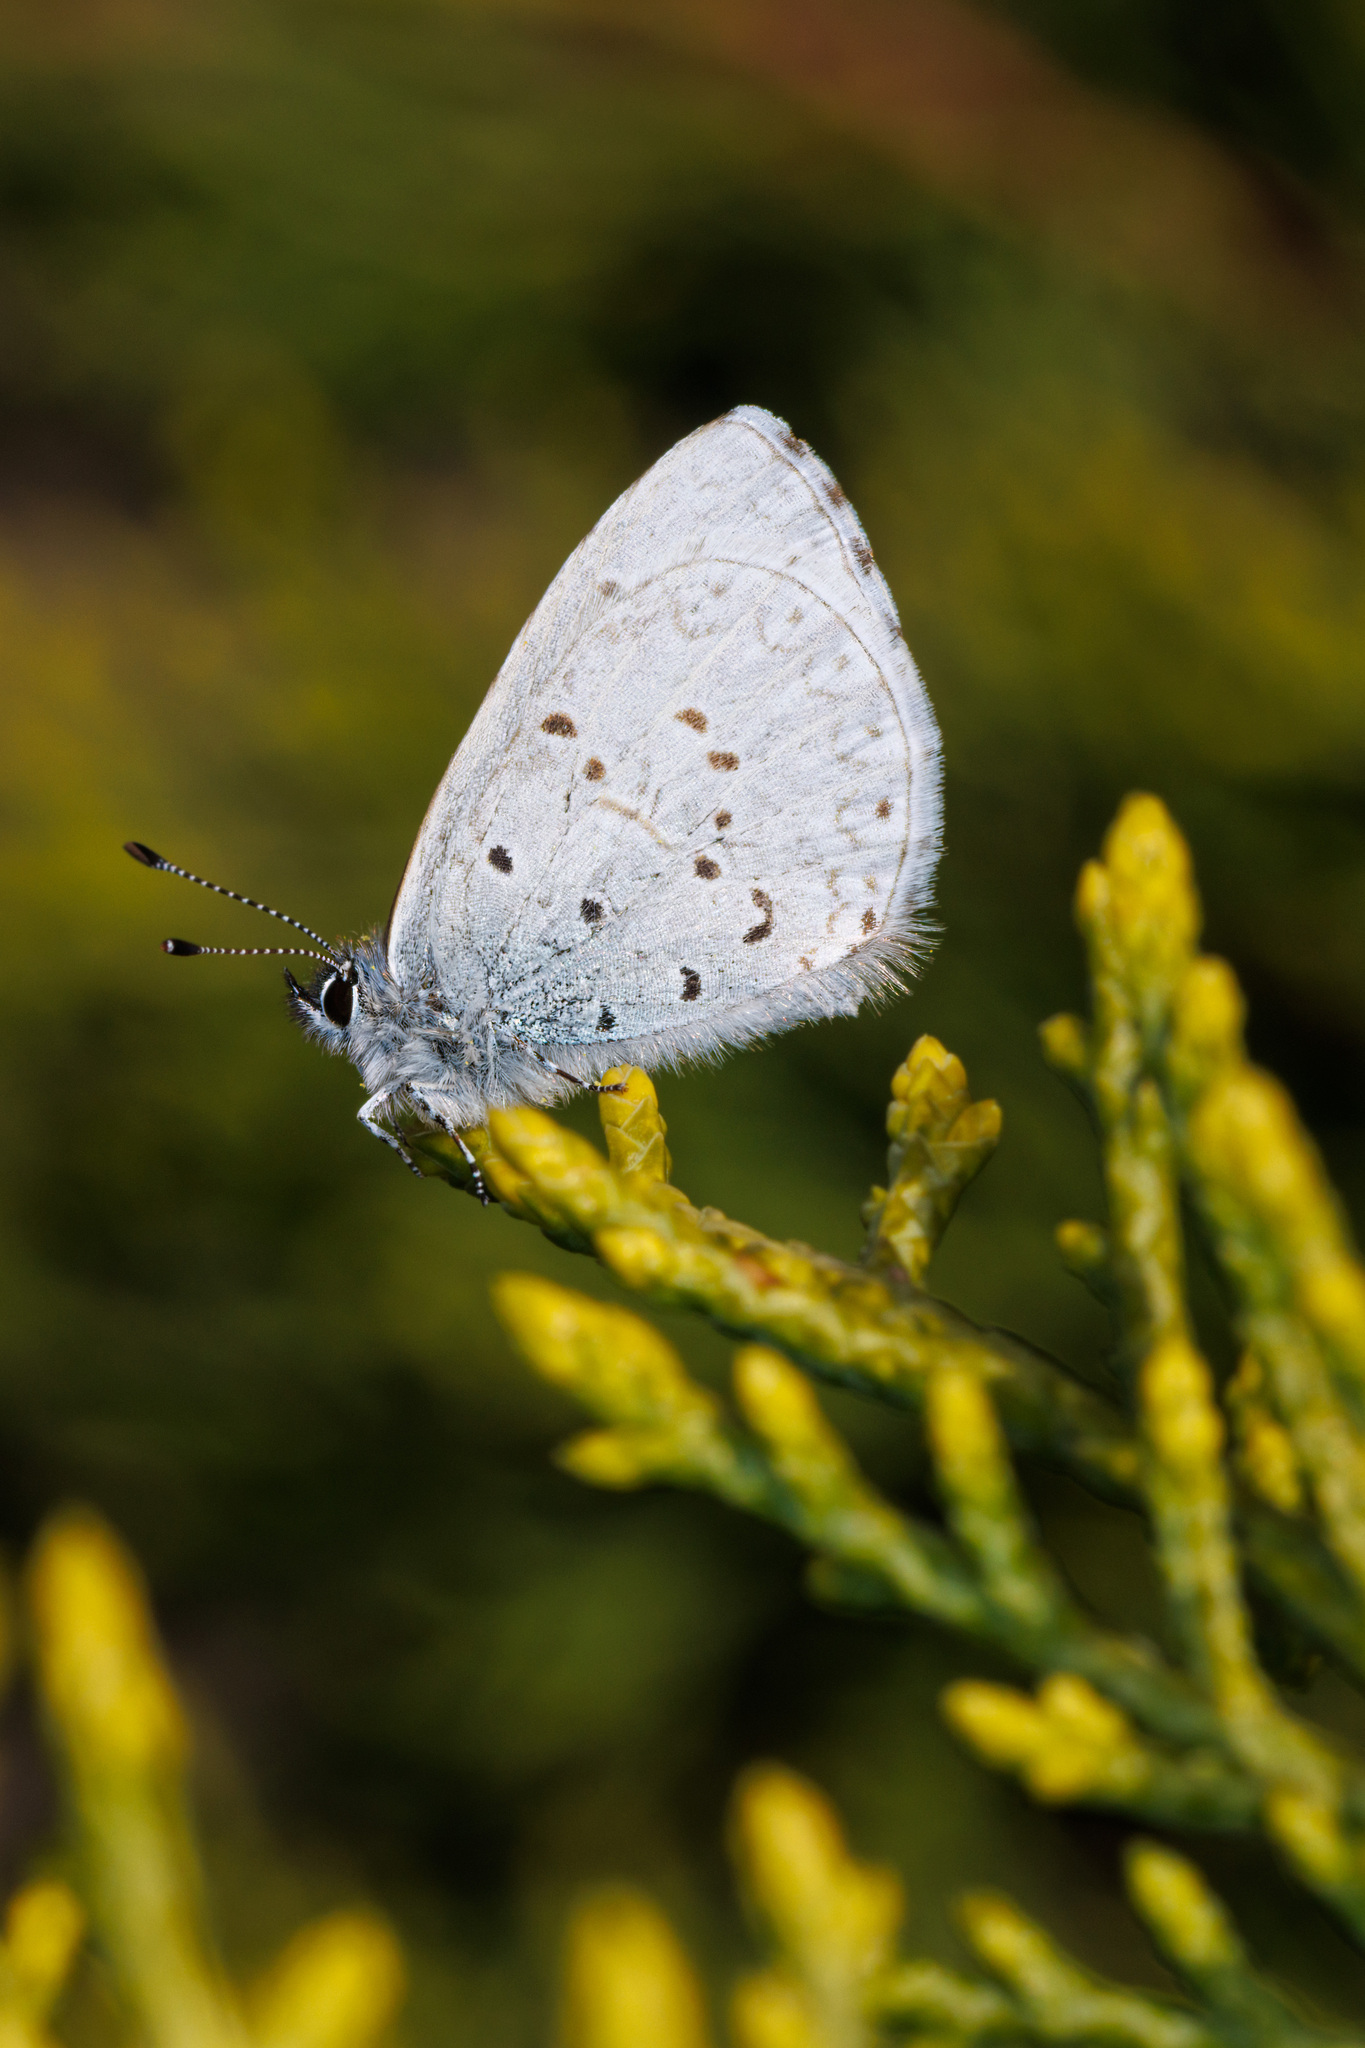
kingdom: Animalia
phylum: Arthropoda
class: Insecta
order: Lepidoptera
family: Lycaenidae
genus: Celastrina
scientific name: Celastrina ladon
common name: Spring azure
